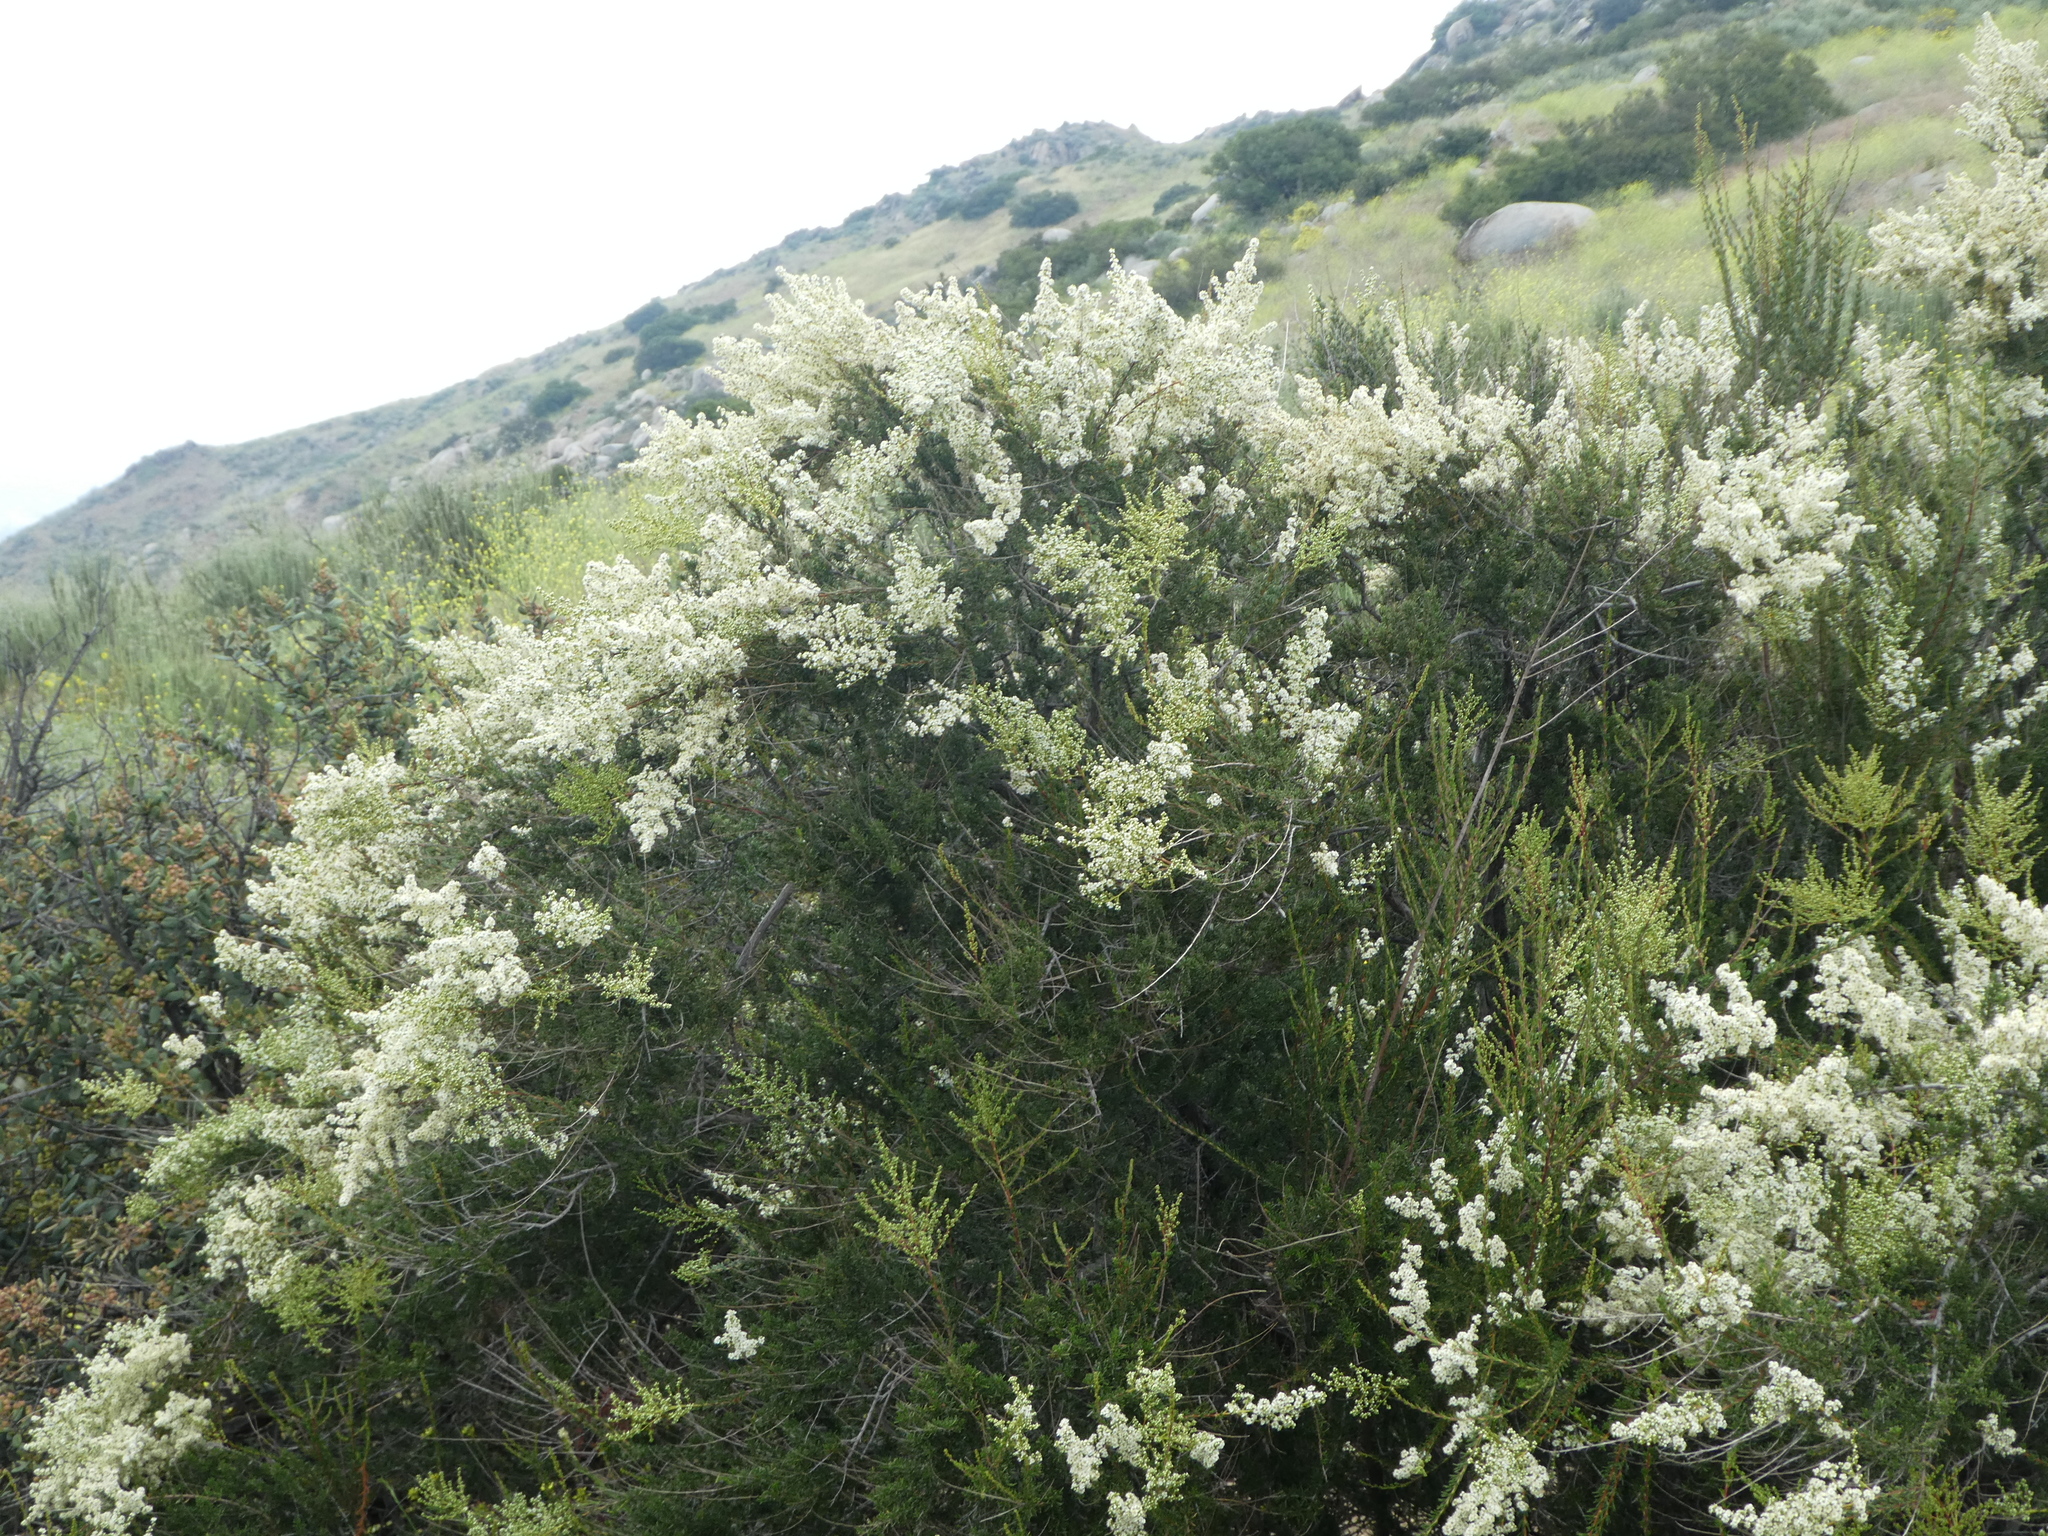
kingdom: Plantae
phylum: Tracheophyta
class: Magnoliopsida
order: Rosales
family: Rosaceae
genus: Adenostoma
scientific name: Adenostoma fasciculatum
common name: Chamise
